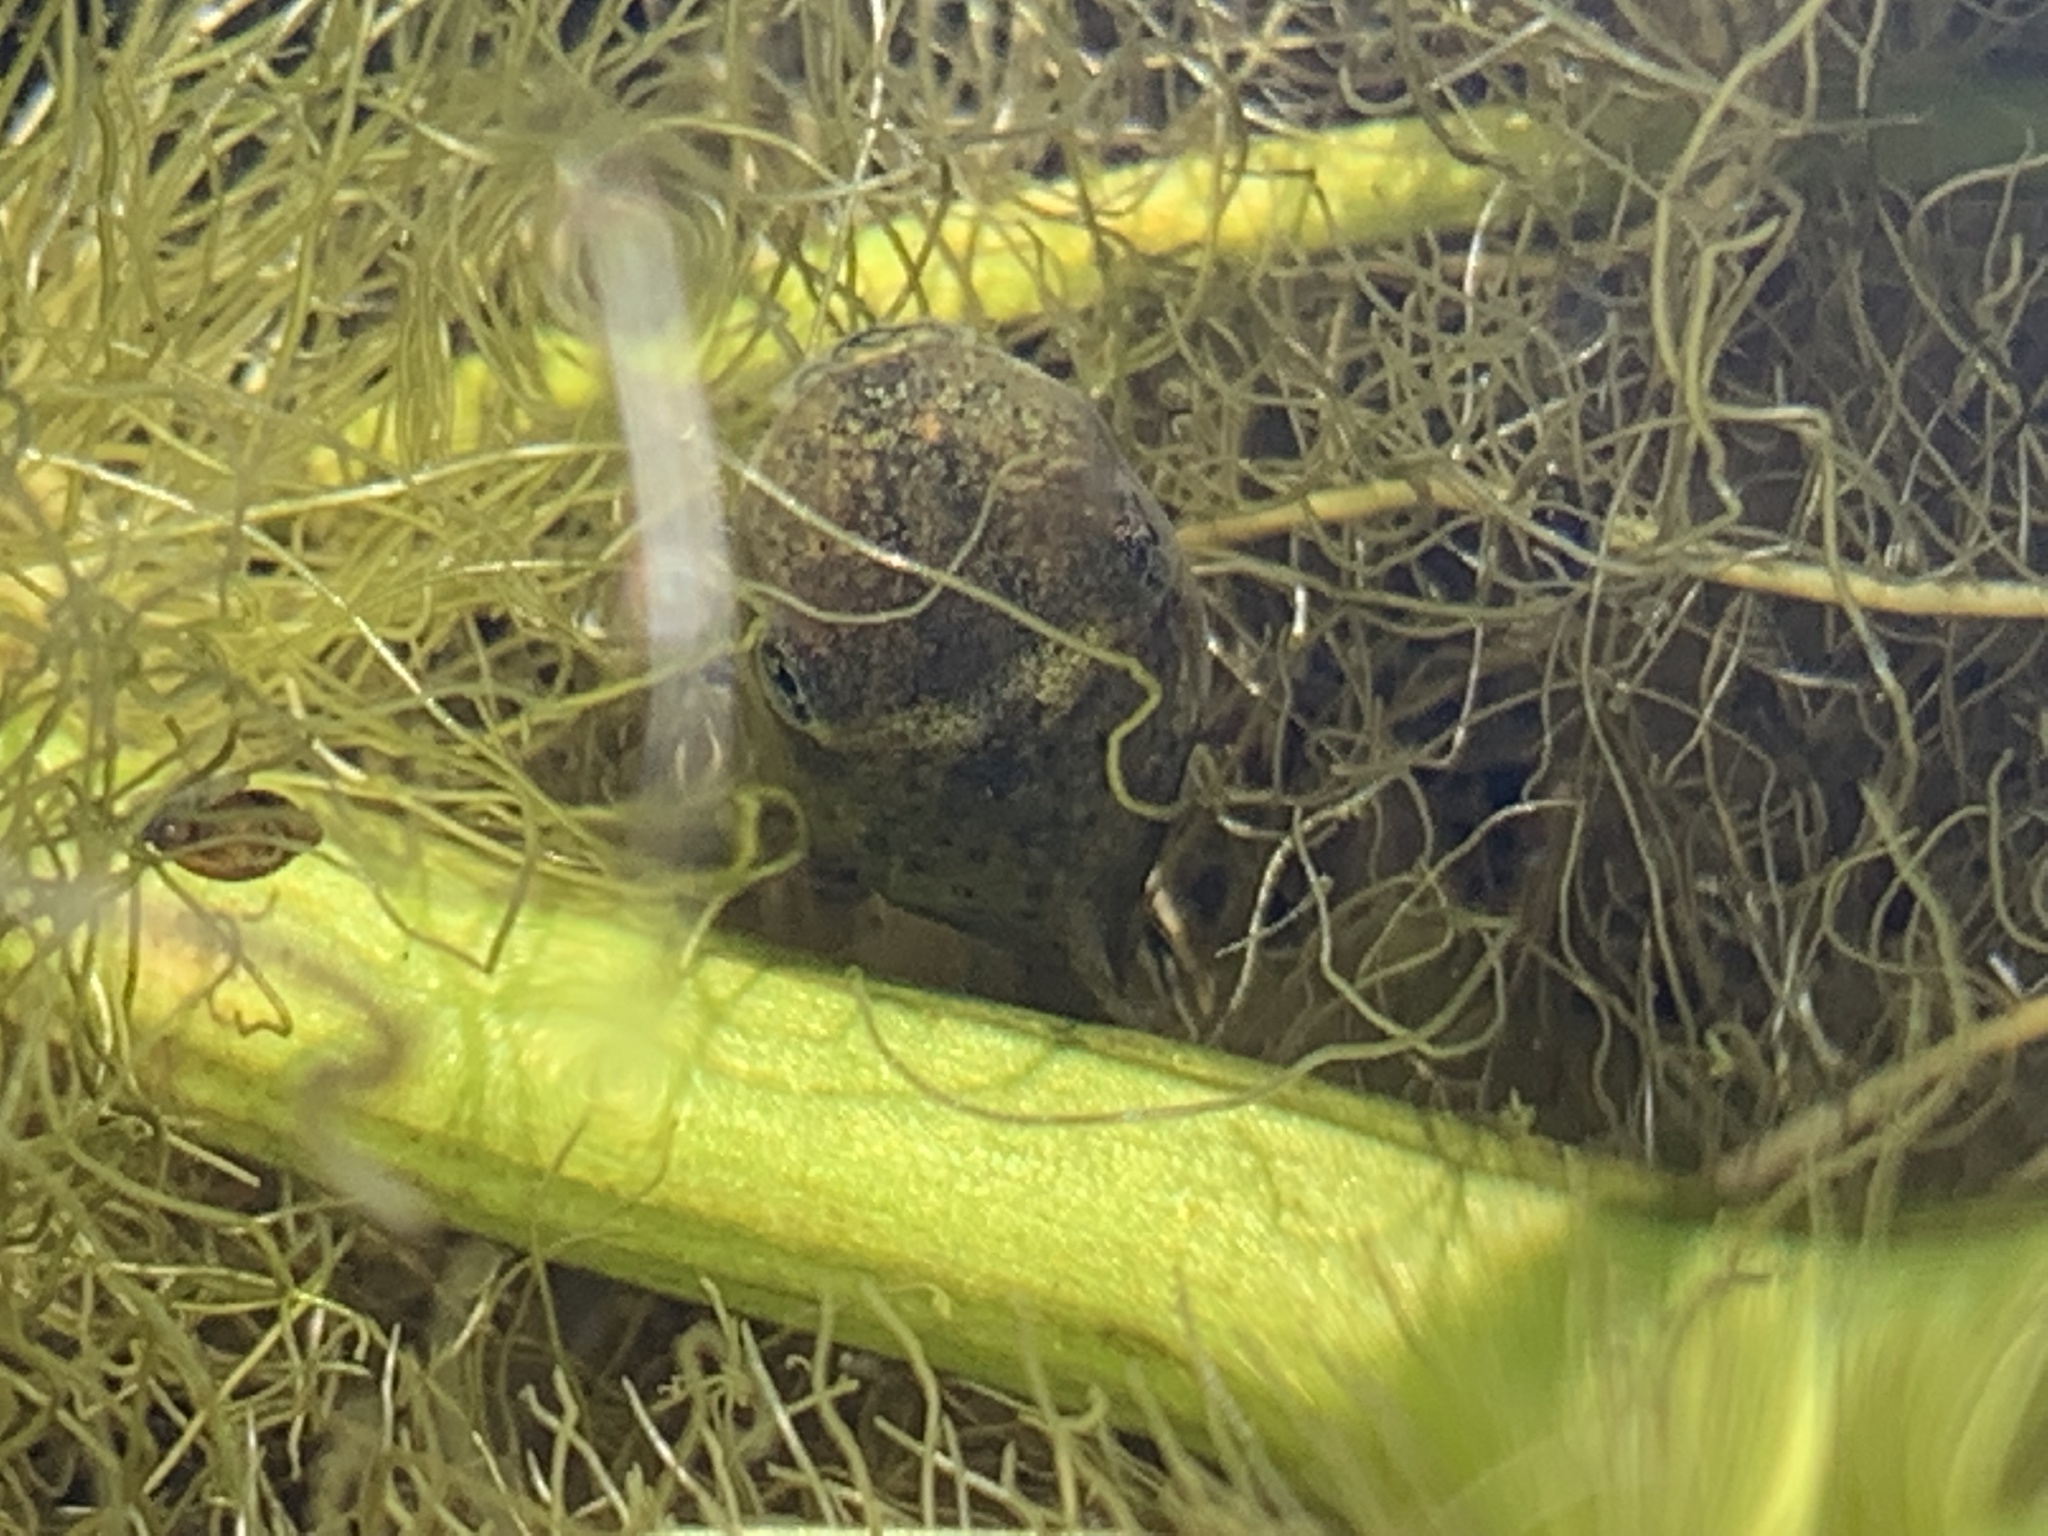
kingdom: Animalia
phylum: Chordata
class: Amphibia
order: Anura
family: Hylidae
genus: Pseudacris
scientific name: Pseudacris regilla
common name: Pacific chorus frog
